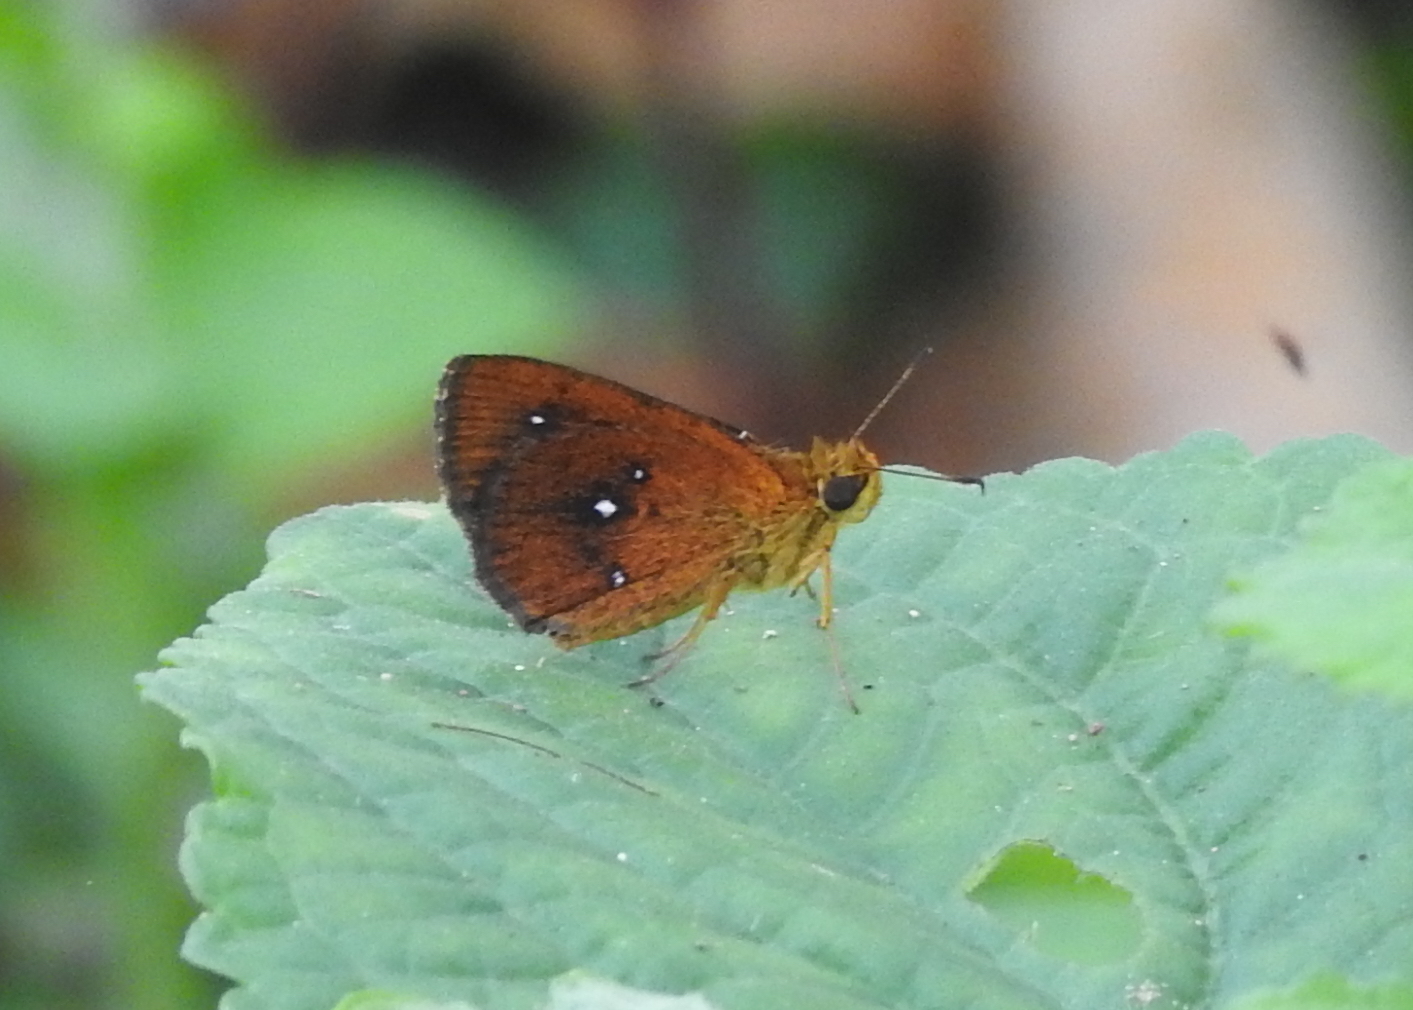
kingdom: Animalia
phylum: Arthropoda
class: Insecta
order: Lepidoptera
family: Hesperiidae
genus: Iambrix
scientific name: Iambrix salsala
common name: Chestnut bob
